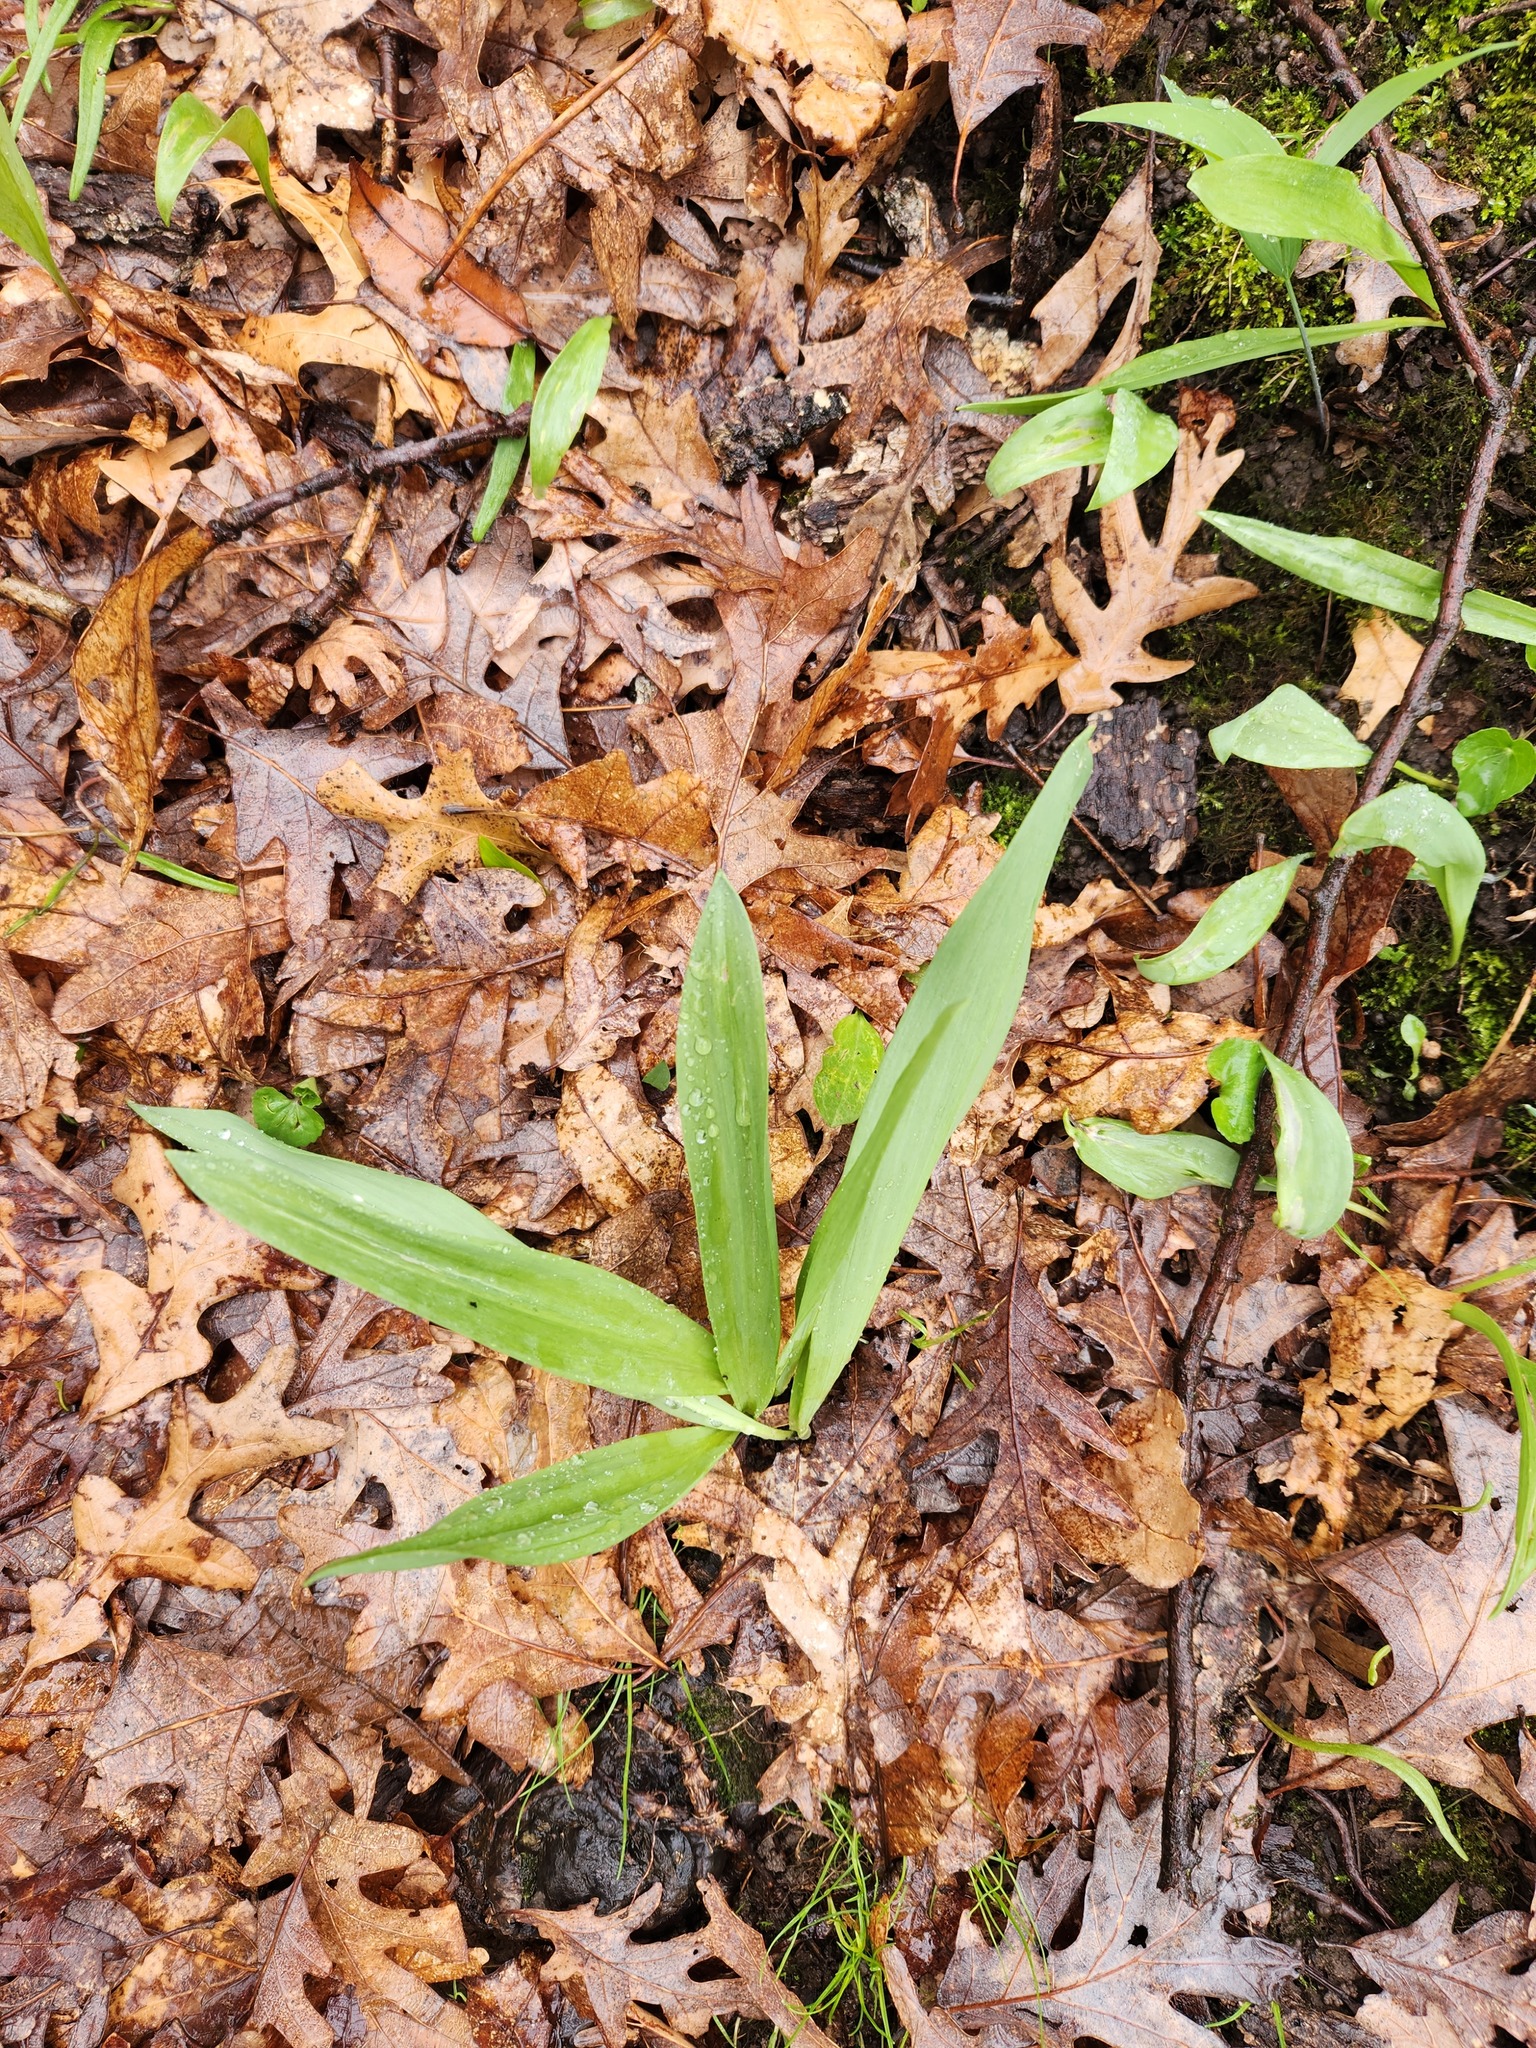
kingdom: Plantae
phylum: Tracheophyta
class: Liliopsida
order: Asparagales
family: Amaryllidaceae
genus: Allium
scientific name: Allium tricoccum
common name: Ramp
